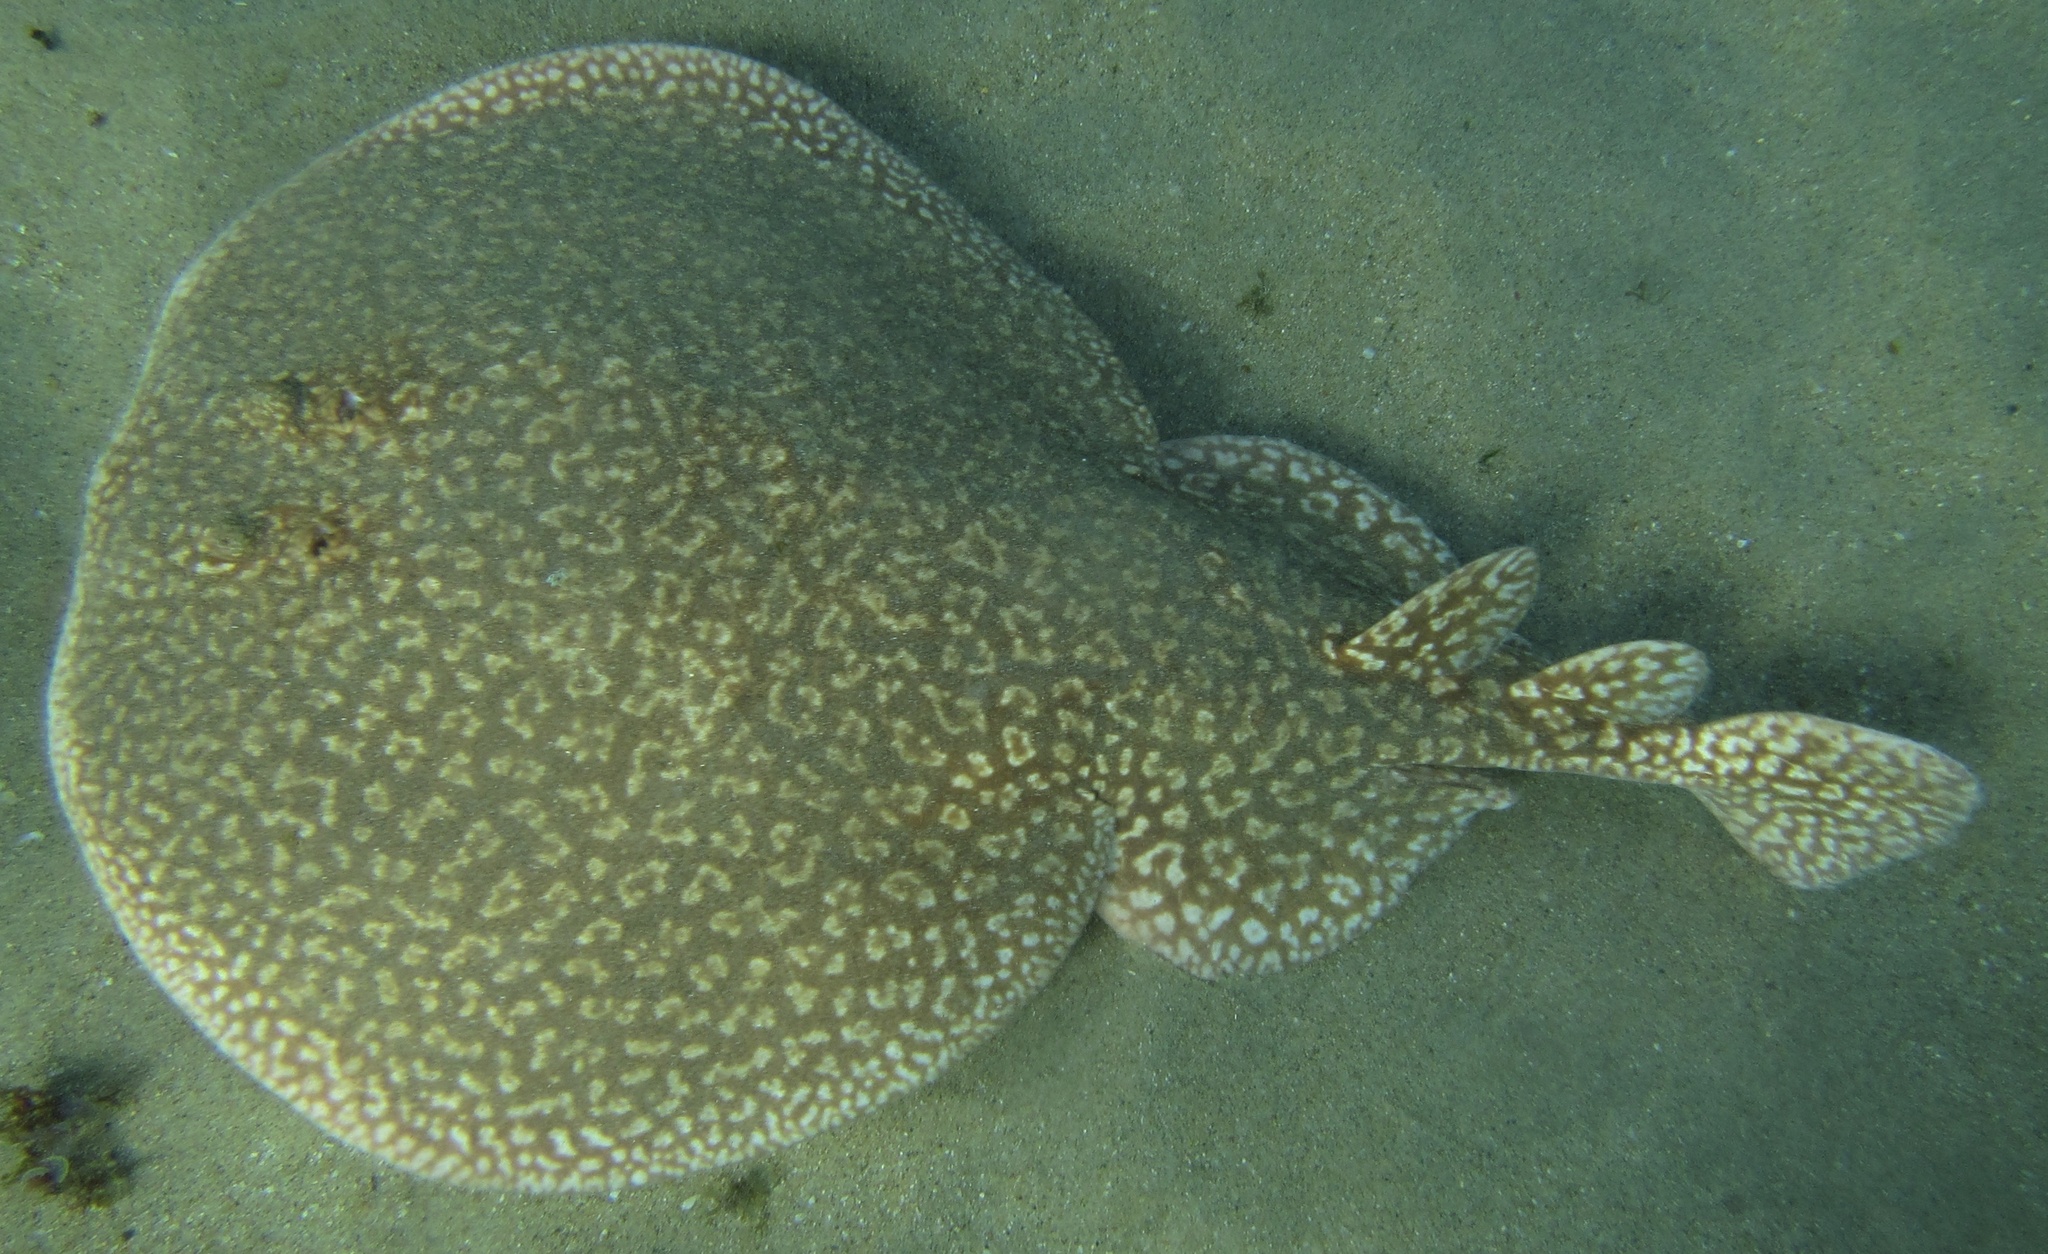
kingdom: Animalia
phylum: Chordata
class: Elasmobranchii
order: Torpediniformes
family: Torpedinidae
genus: Torpedo
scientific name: Torpedo sinuspersici
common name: Marbled electric ray
